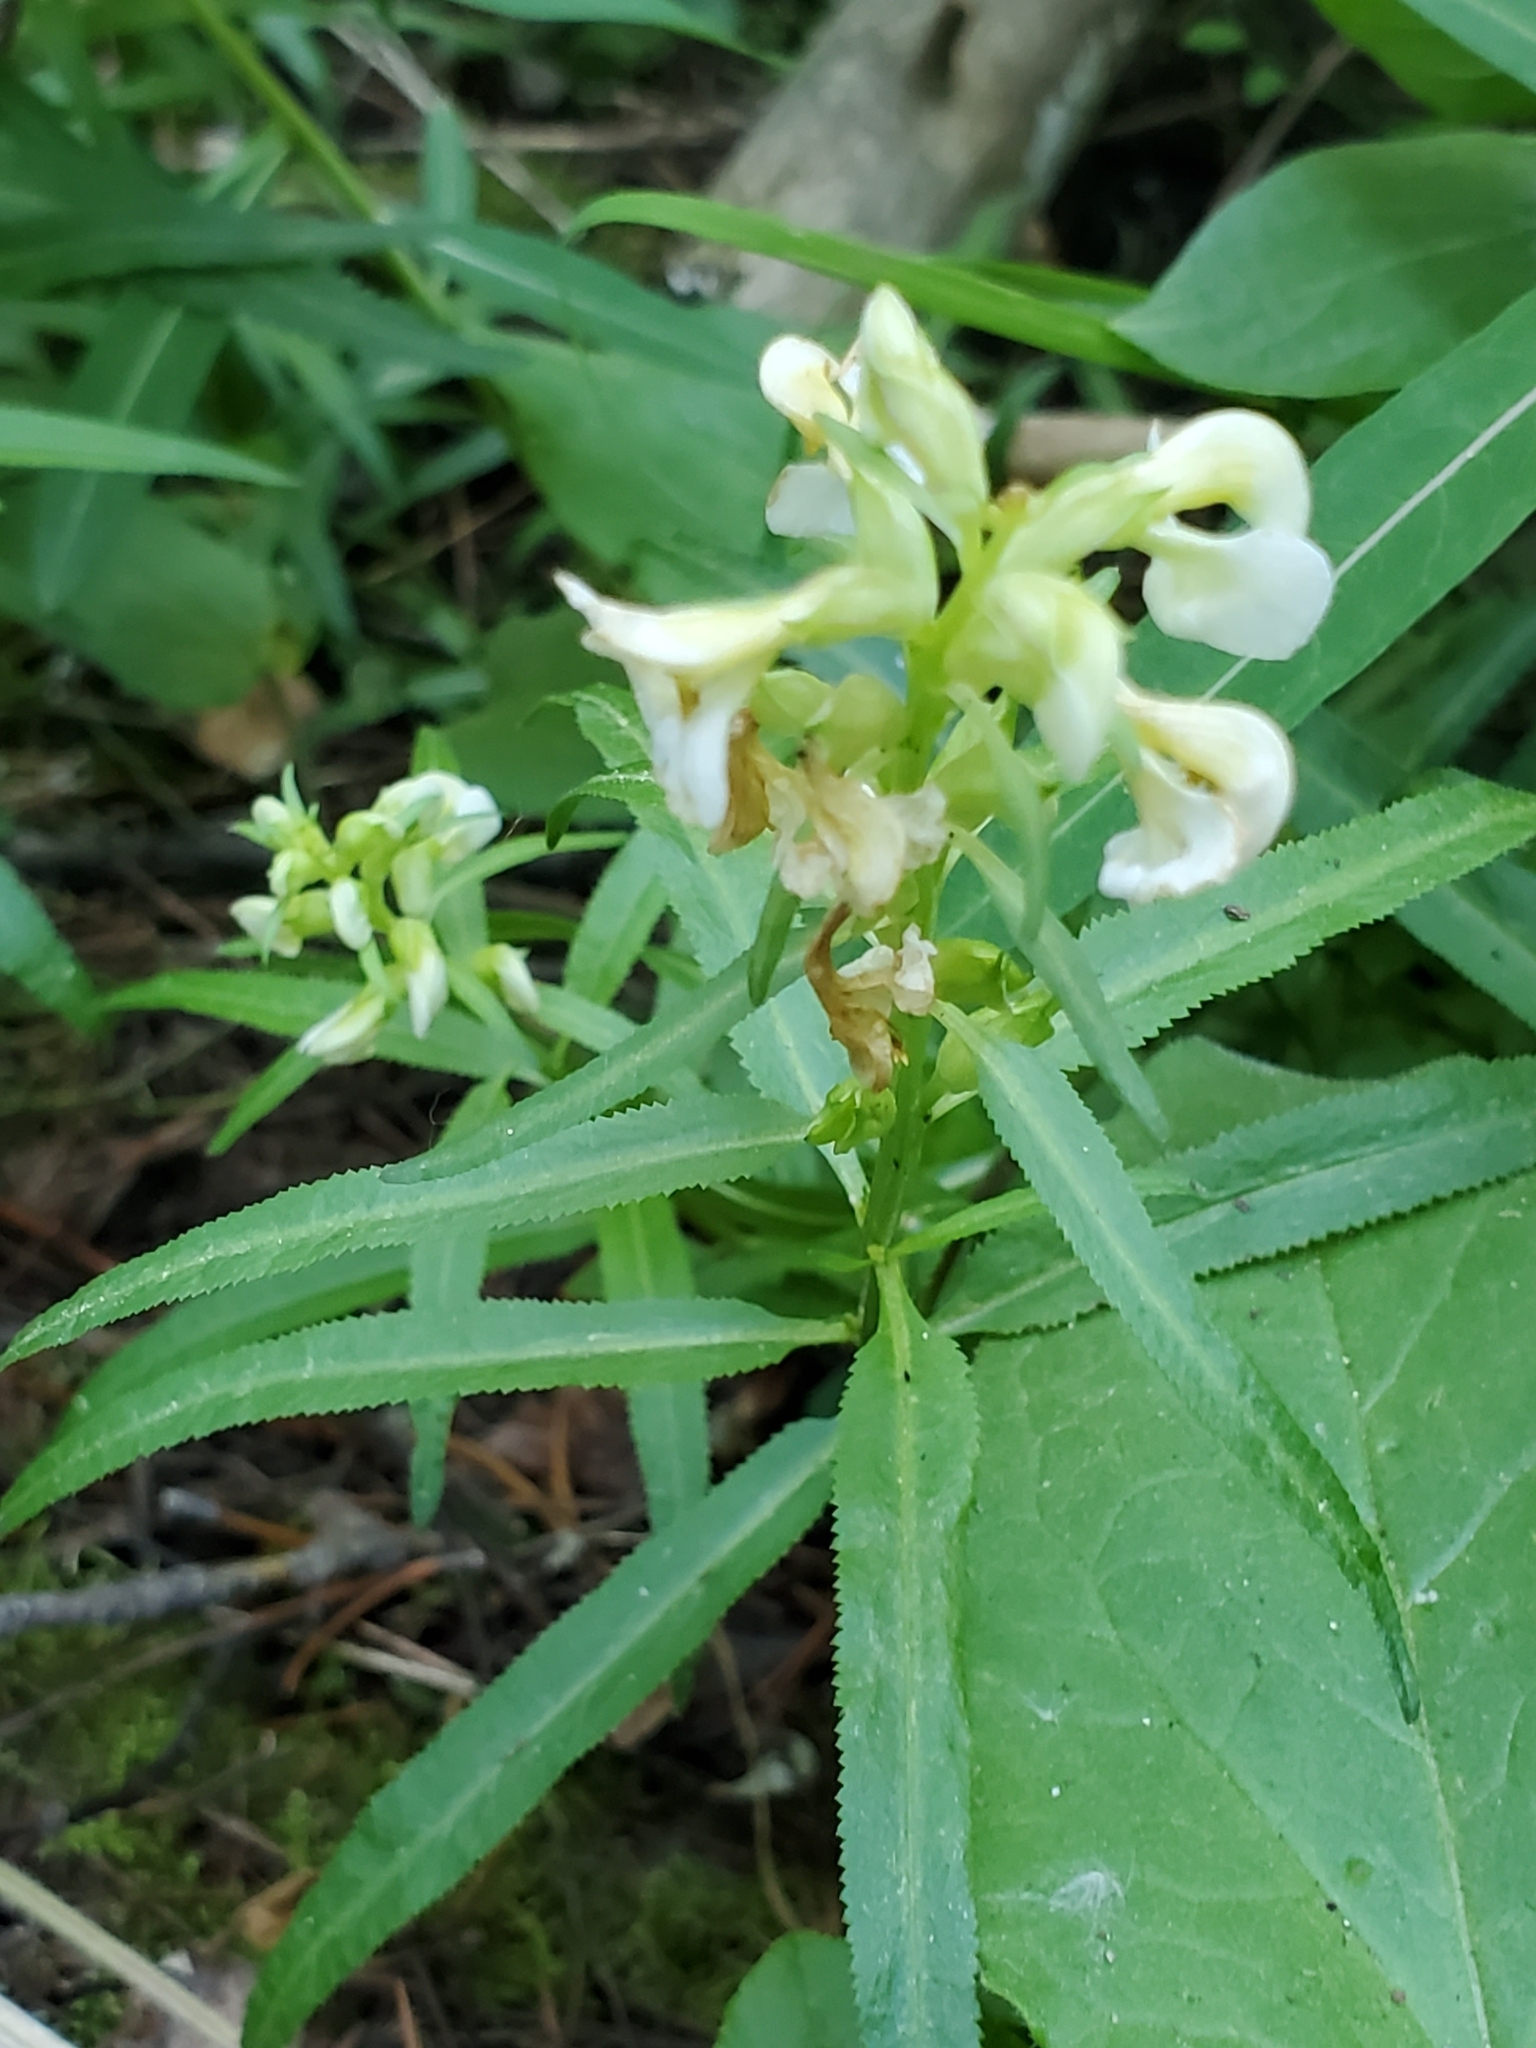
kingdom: Plantae
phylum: Tracheophyta
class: Magnoliopsida
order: Lamiales
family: Orobanchaceae
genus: Pedicularis
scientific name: Pedicularis racemosa
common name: Leafy lousewort
